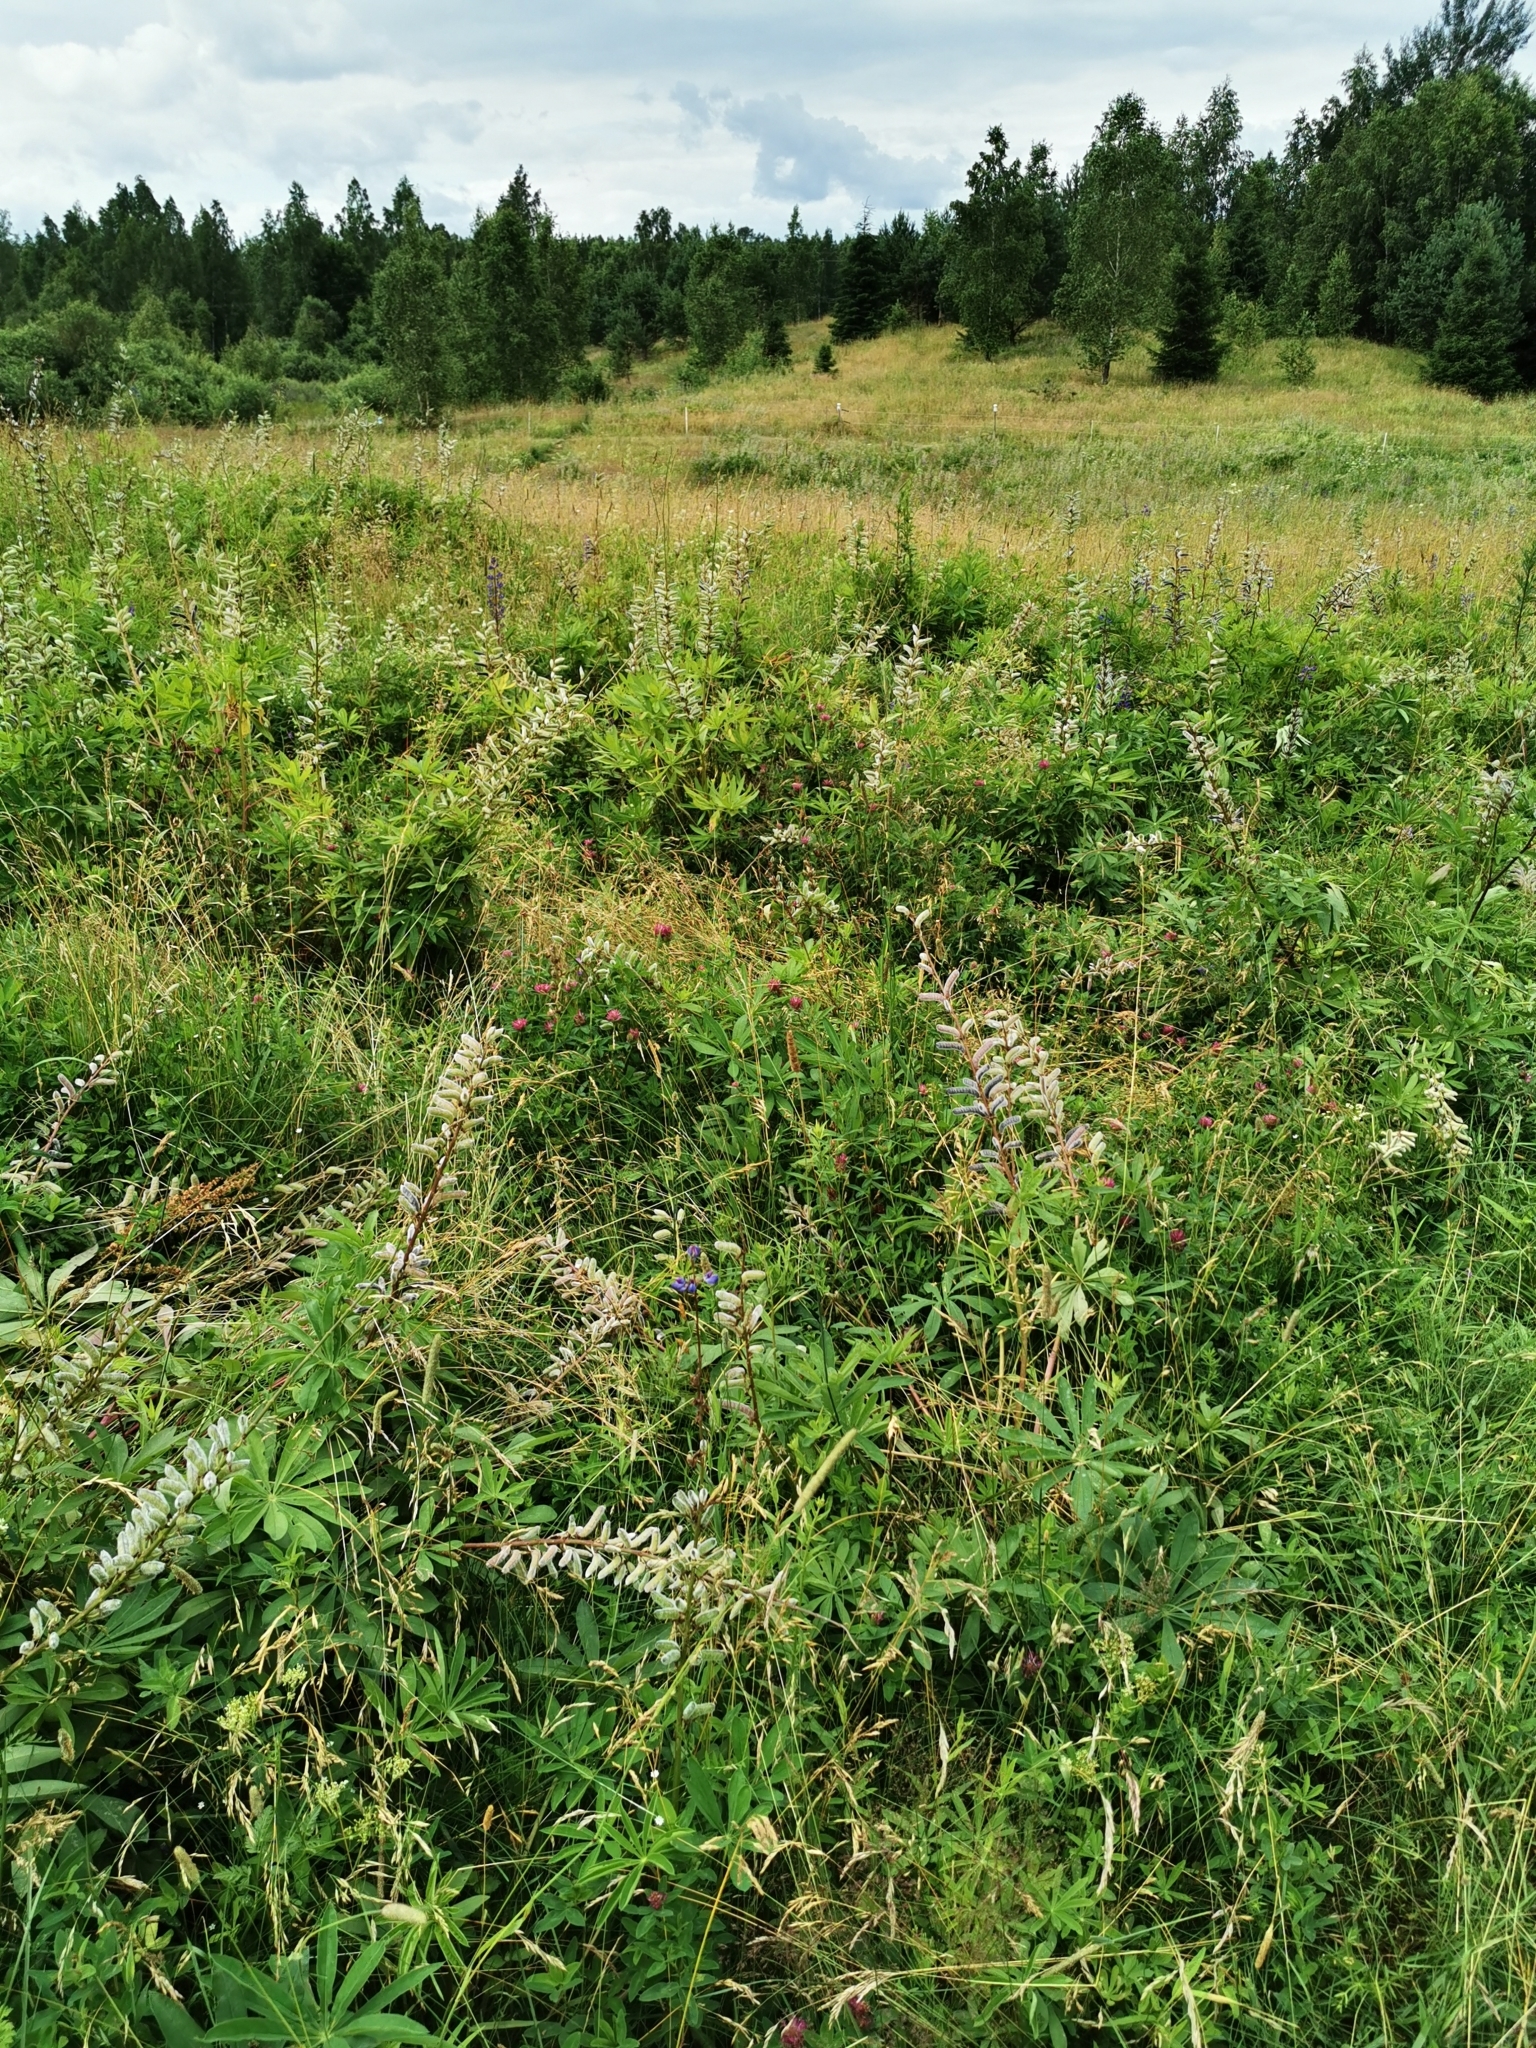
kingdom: Plantae
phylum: Tracheophyta
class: Magnoliopsida
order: Fabales
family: Fabaceae
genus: Lupinus
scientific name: Lupinus polyphyllus
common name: Garden lupin
